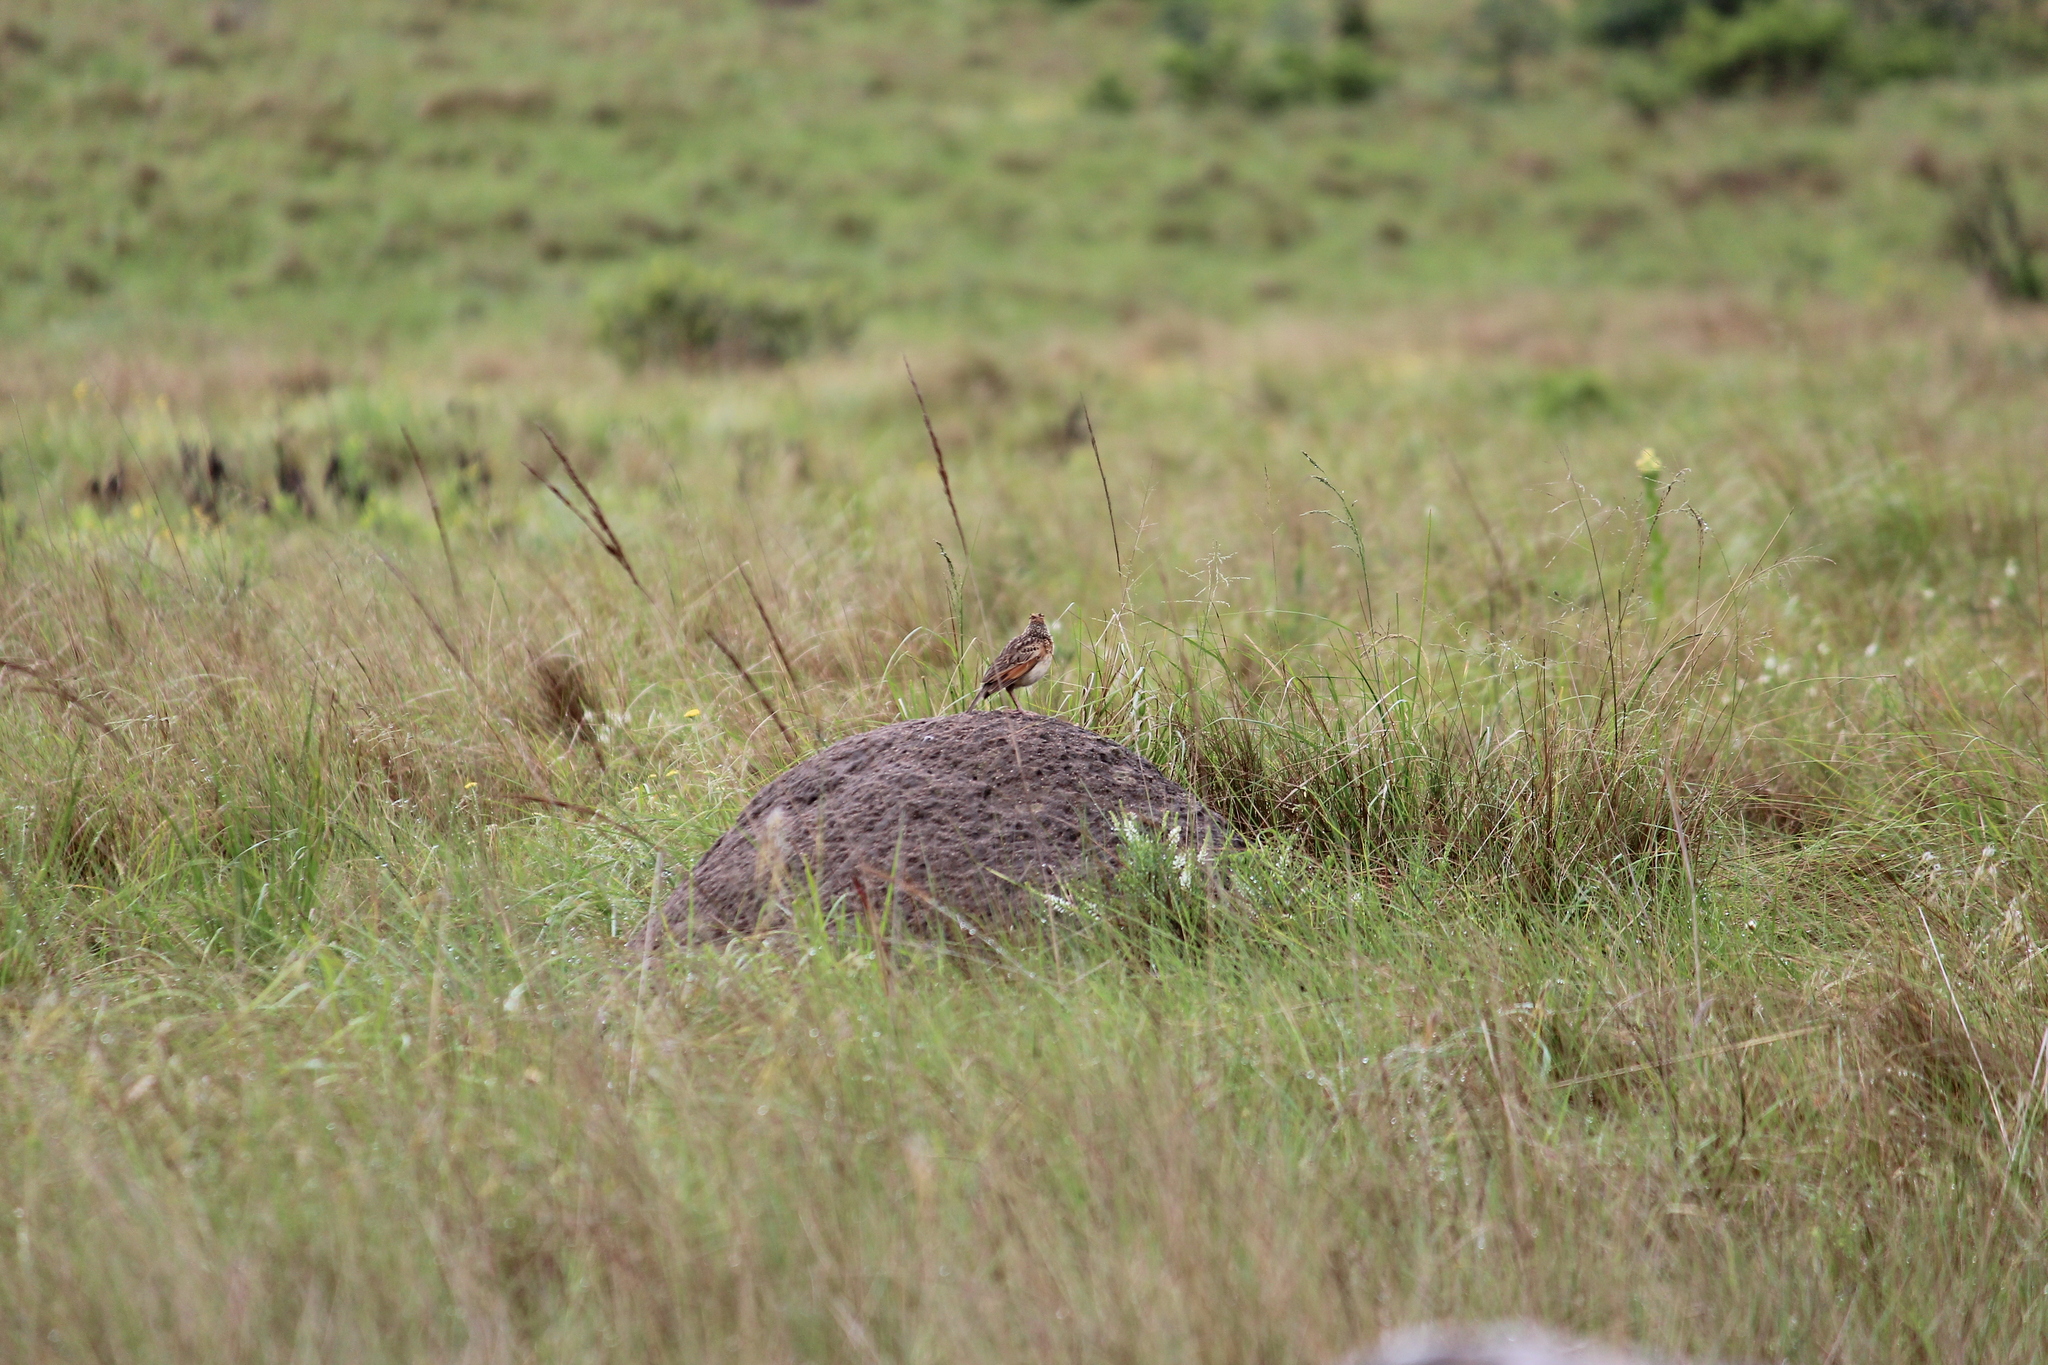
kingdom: Animalia
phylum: Chordata
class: Aves
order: Passeriformes
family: Alaudidae
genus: Mirafra
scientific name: Mirafra africana
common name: Rufous-naped lark
